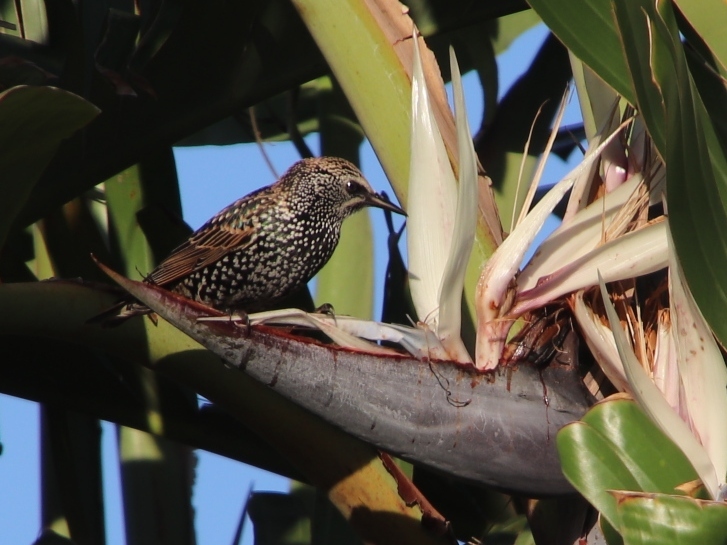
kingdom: Animalia
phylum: Chordata
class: Aves
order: Passeriformes
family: Sturnidae
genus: Sturnus
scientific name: Sturnus vulgaris
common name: Common starling
